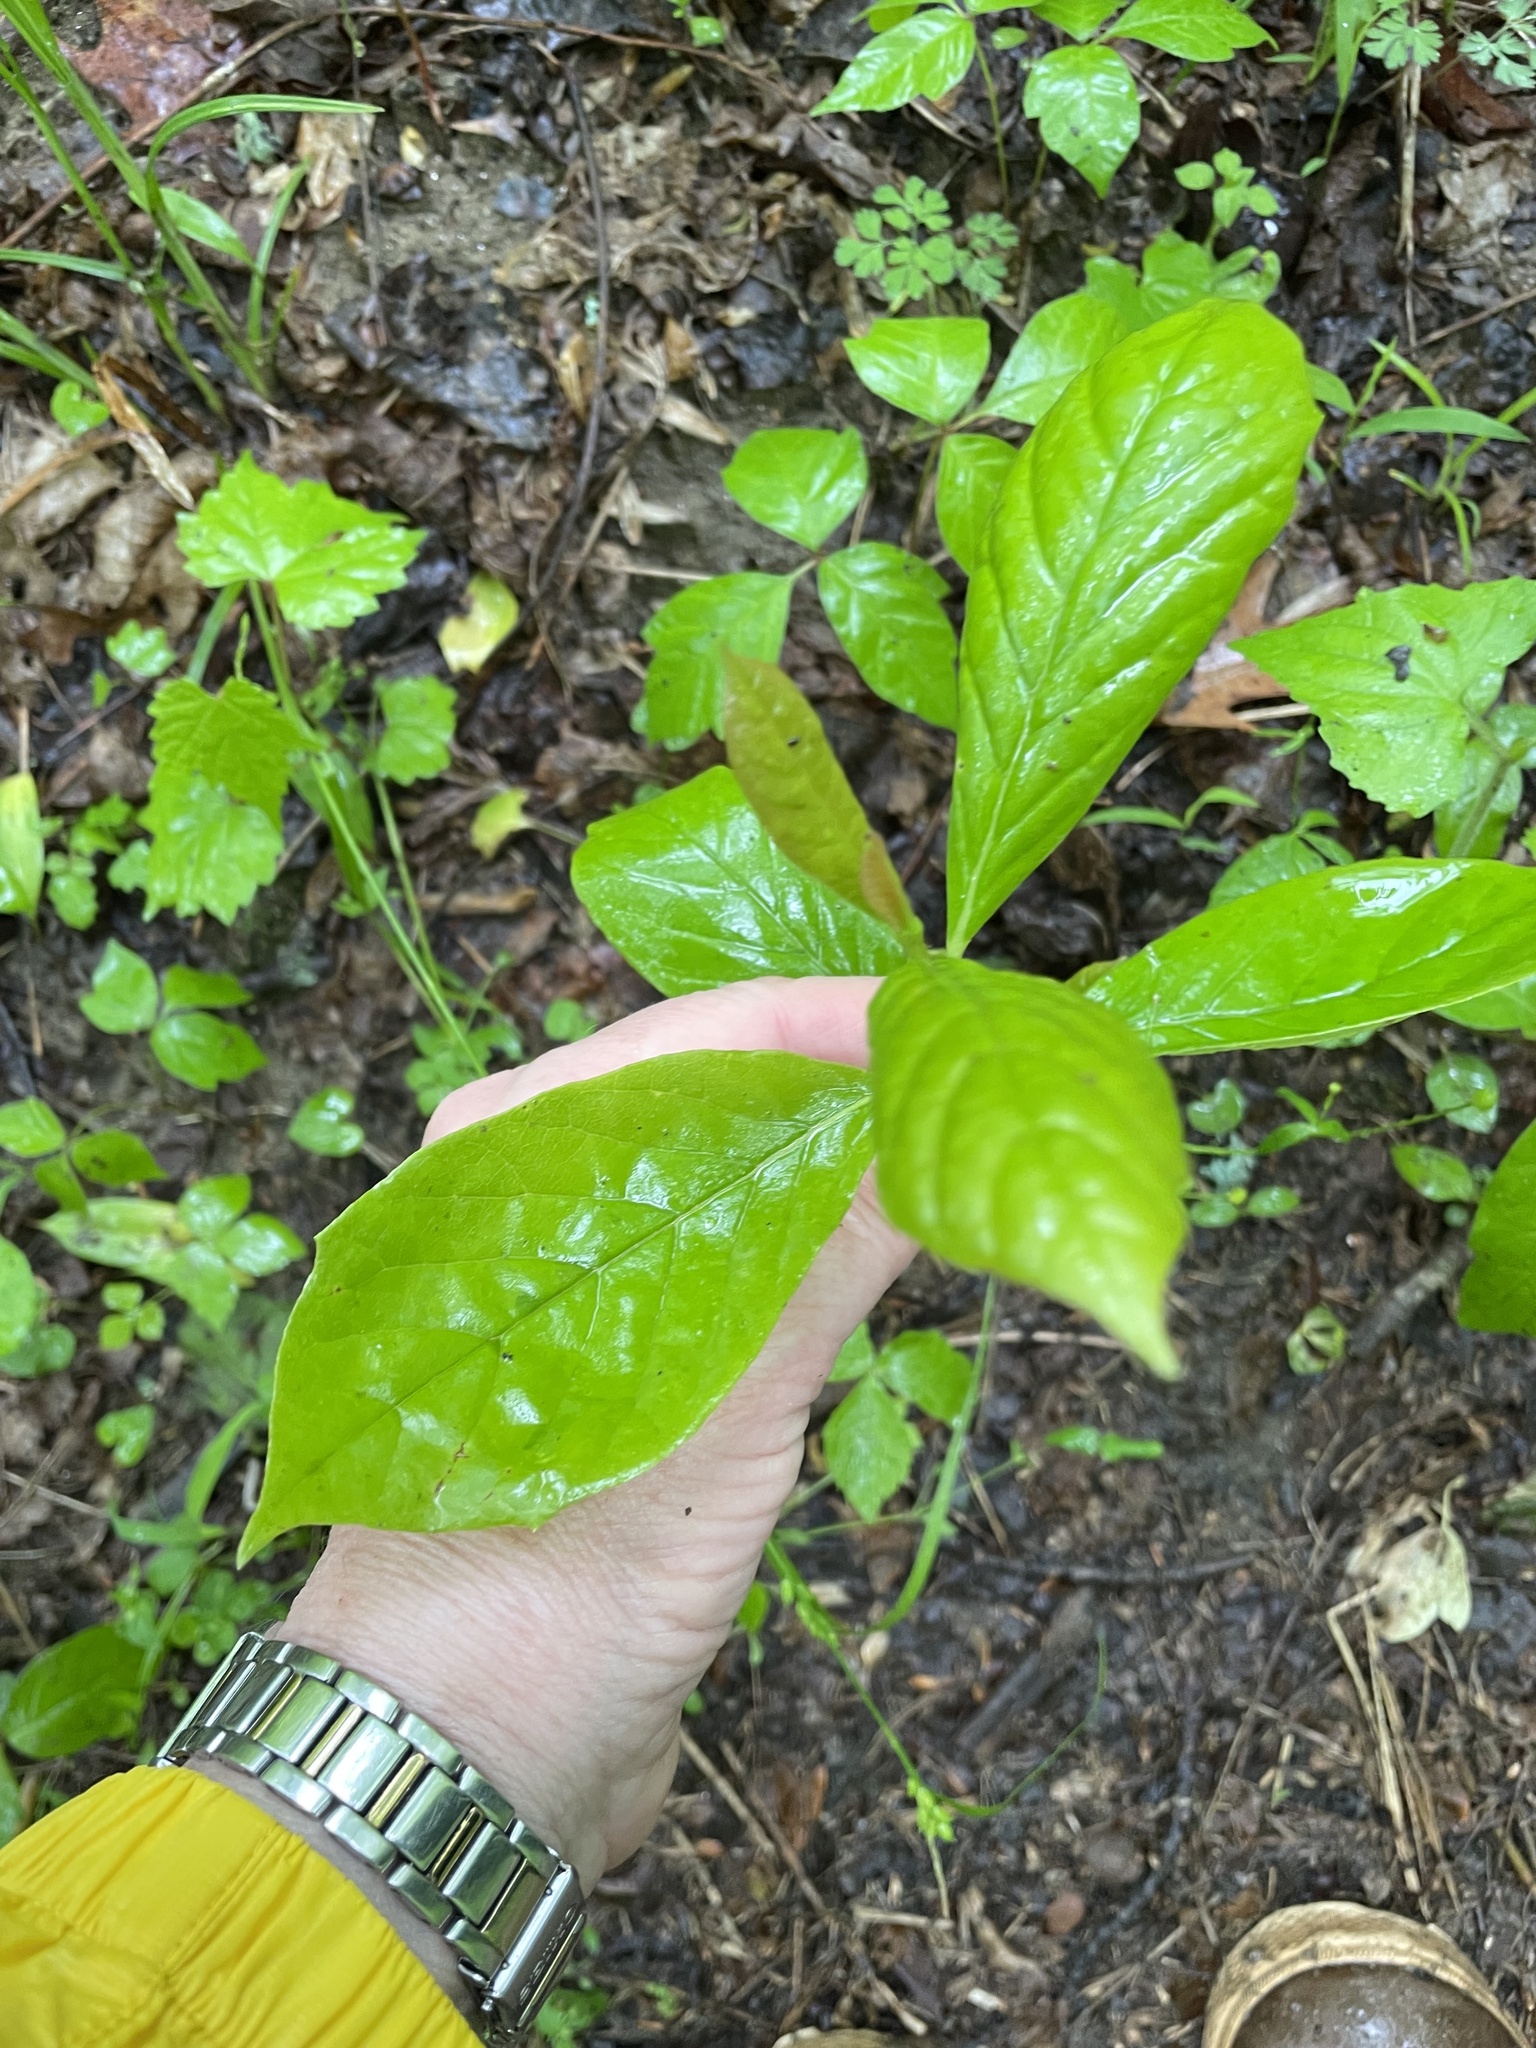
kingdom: Plantae
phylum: Tracheophyta
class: Magnoliopsida
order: Cornales
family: Nyssaceae
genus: Nyssa
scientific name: Nyssa sylvatica
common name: Black tupelo
